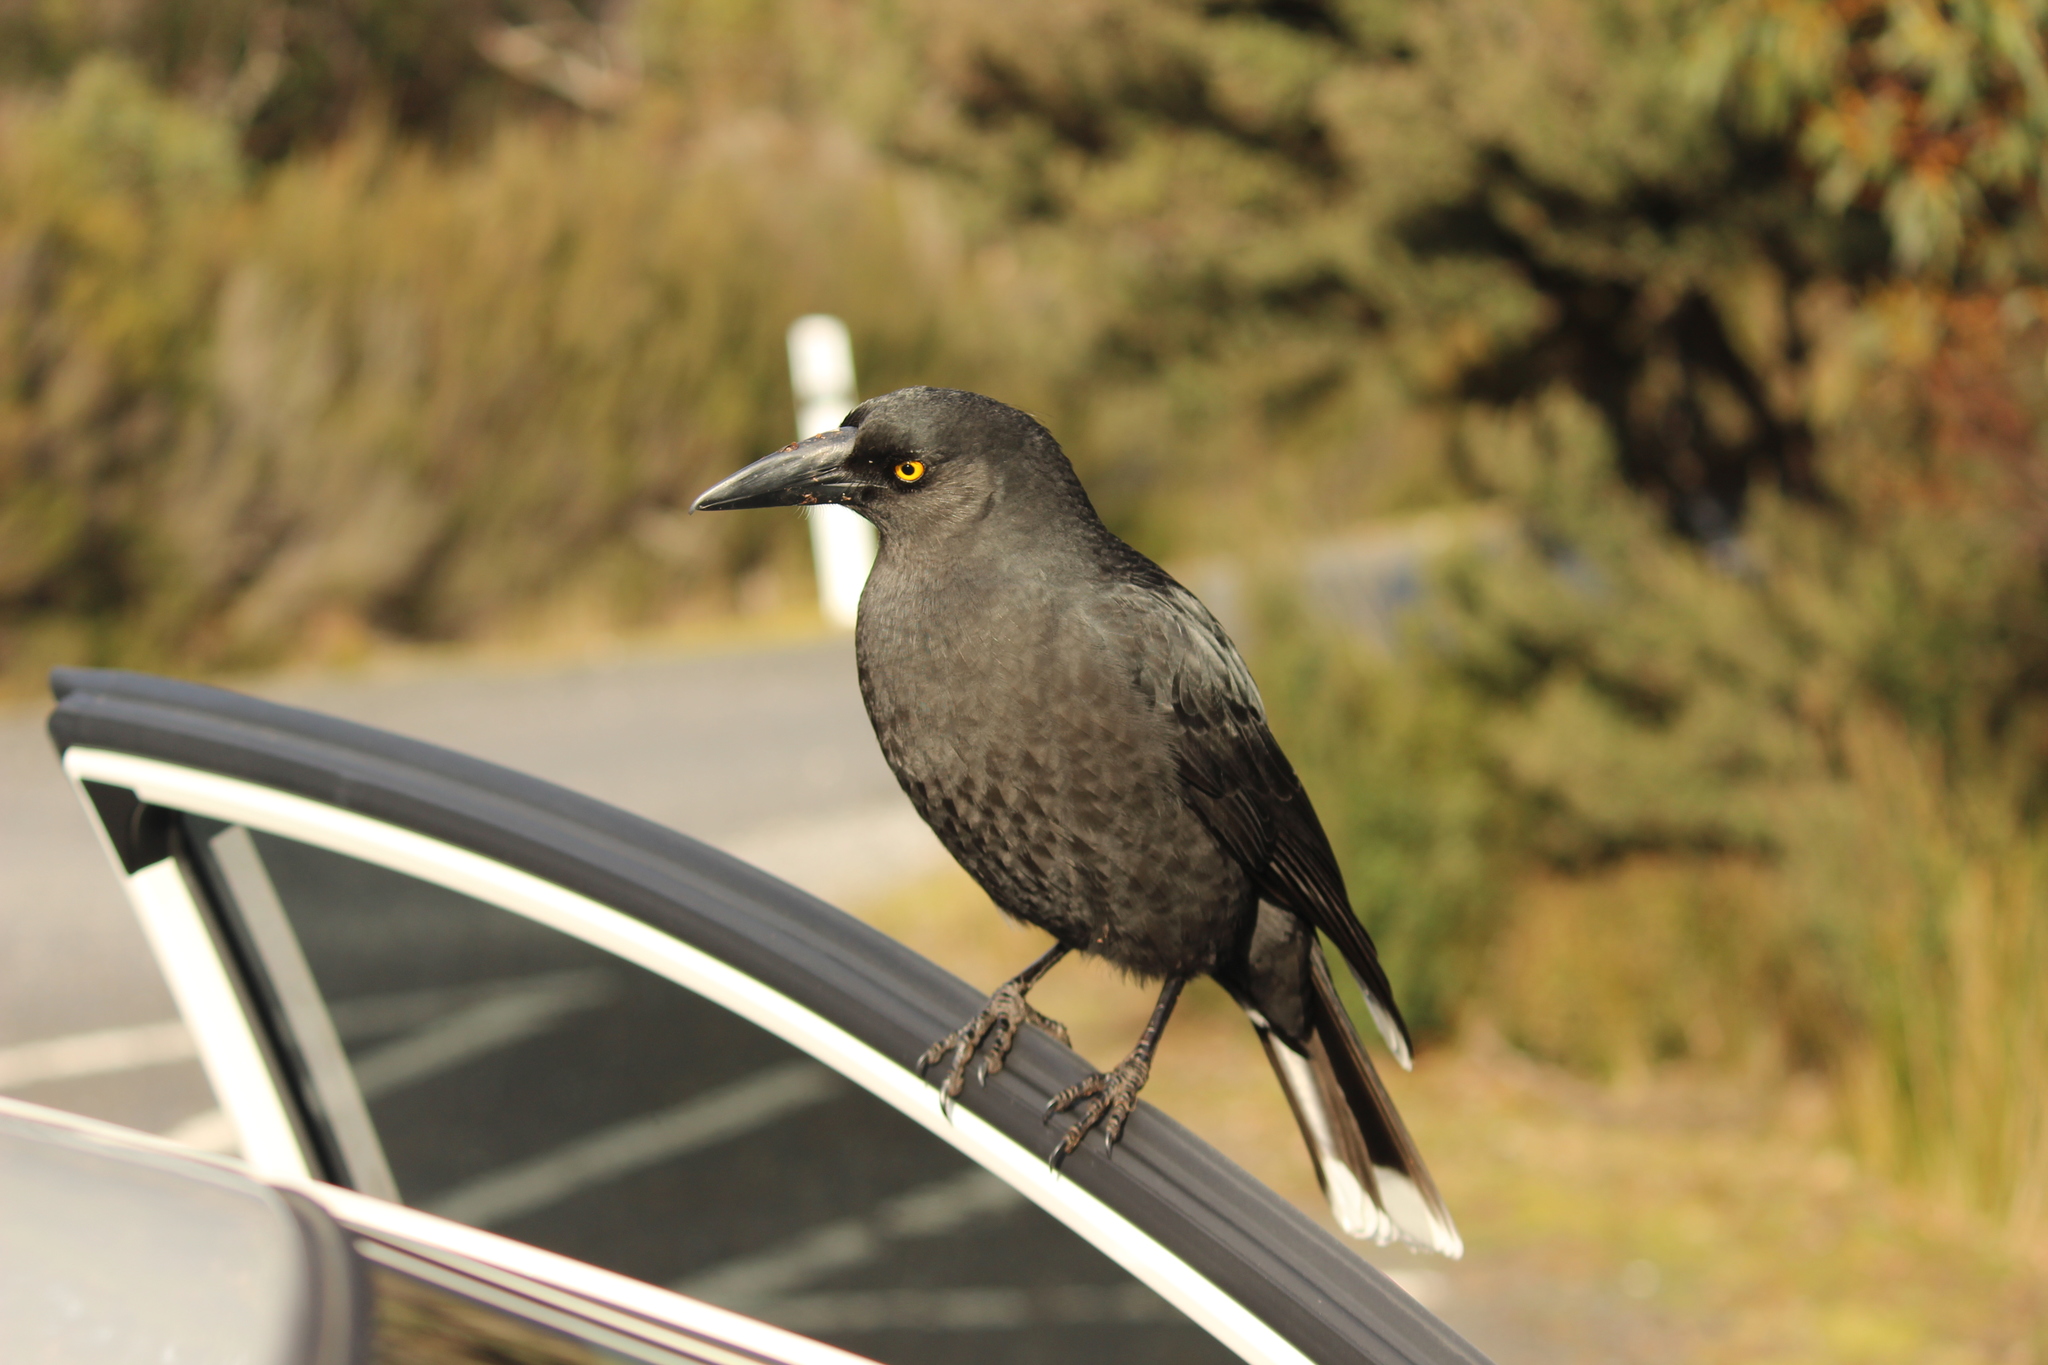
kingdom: Animalia
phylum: Chordata
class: Aves
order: Passeriformes
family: Cracticidae
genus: Strepera
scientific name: Strepera fuliginosa
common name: Black currawong
